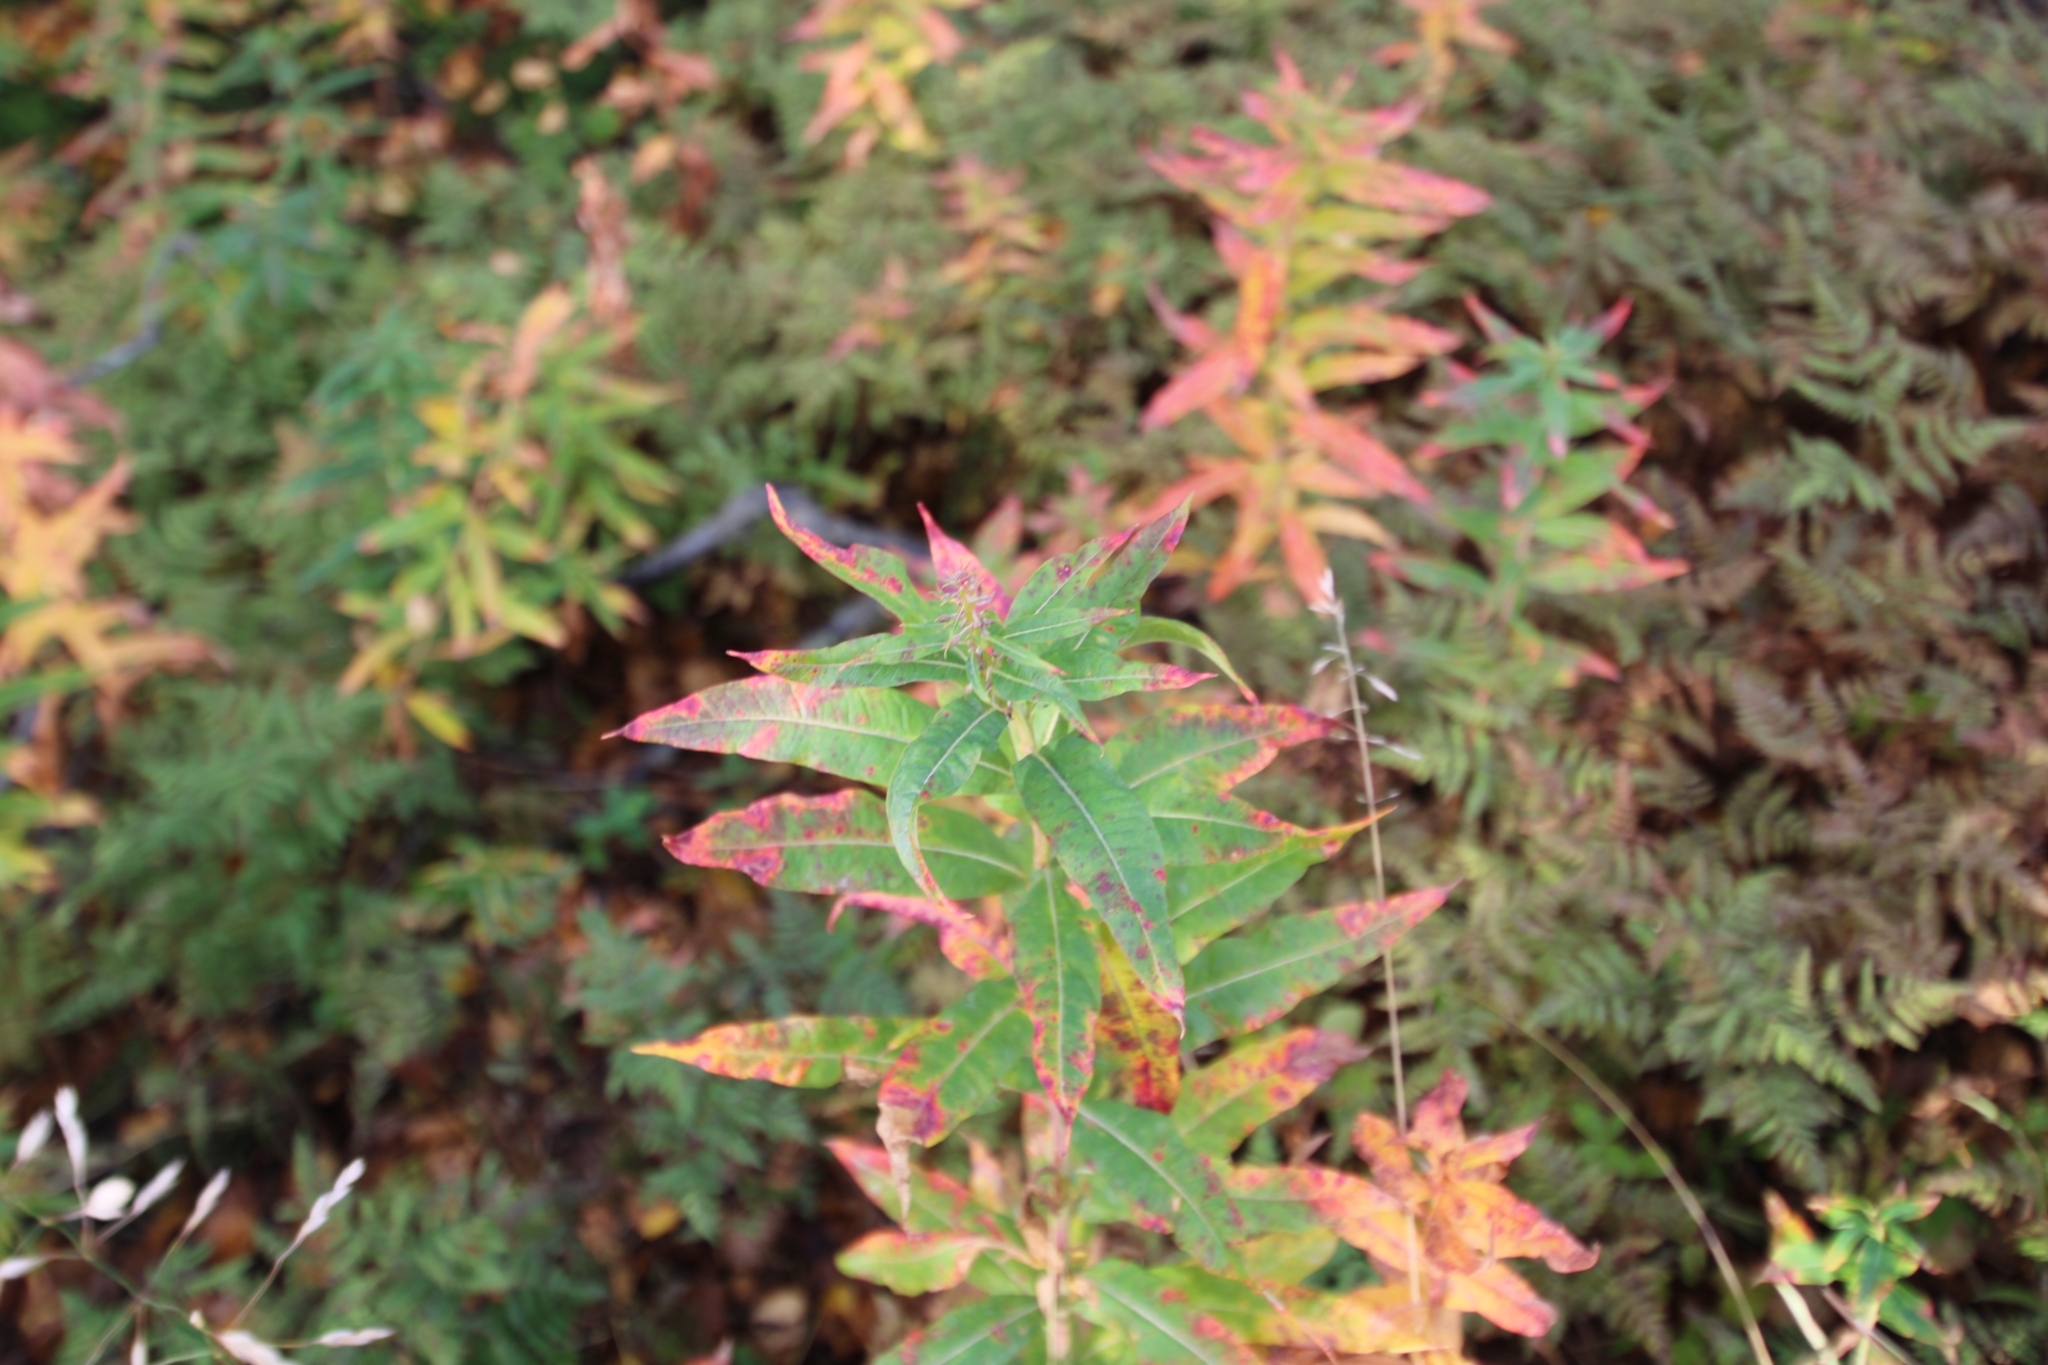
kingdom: Plantae
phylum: Tracheophyta
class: Magnoliopsida
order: Myrtales
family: Onagraceae
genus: Chamaenerion
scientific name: Chamaenerion angustifolium
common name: Fireweed
